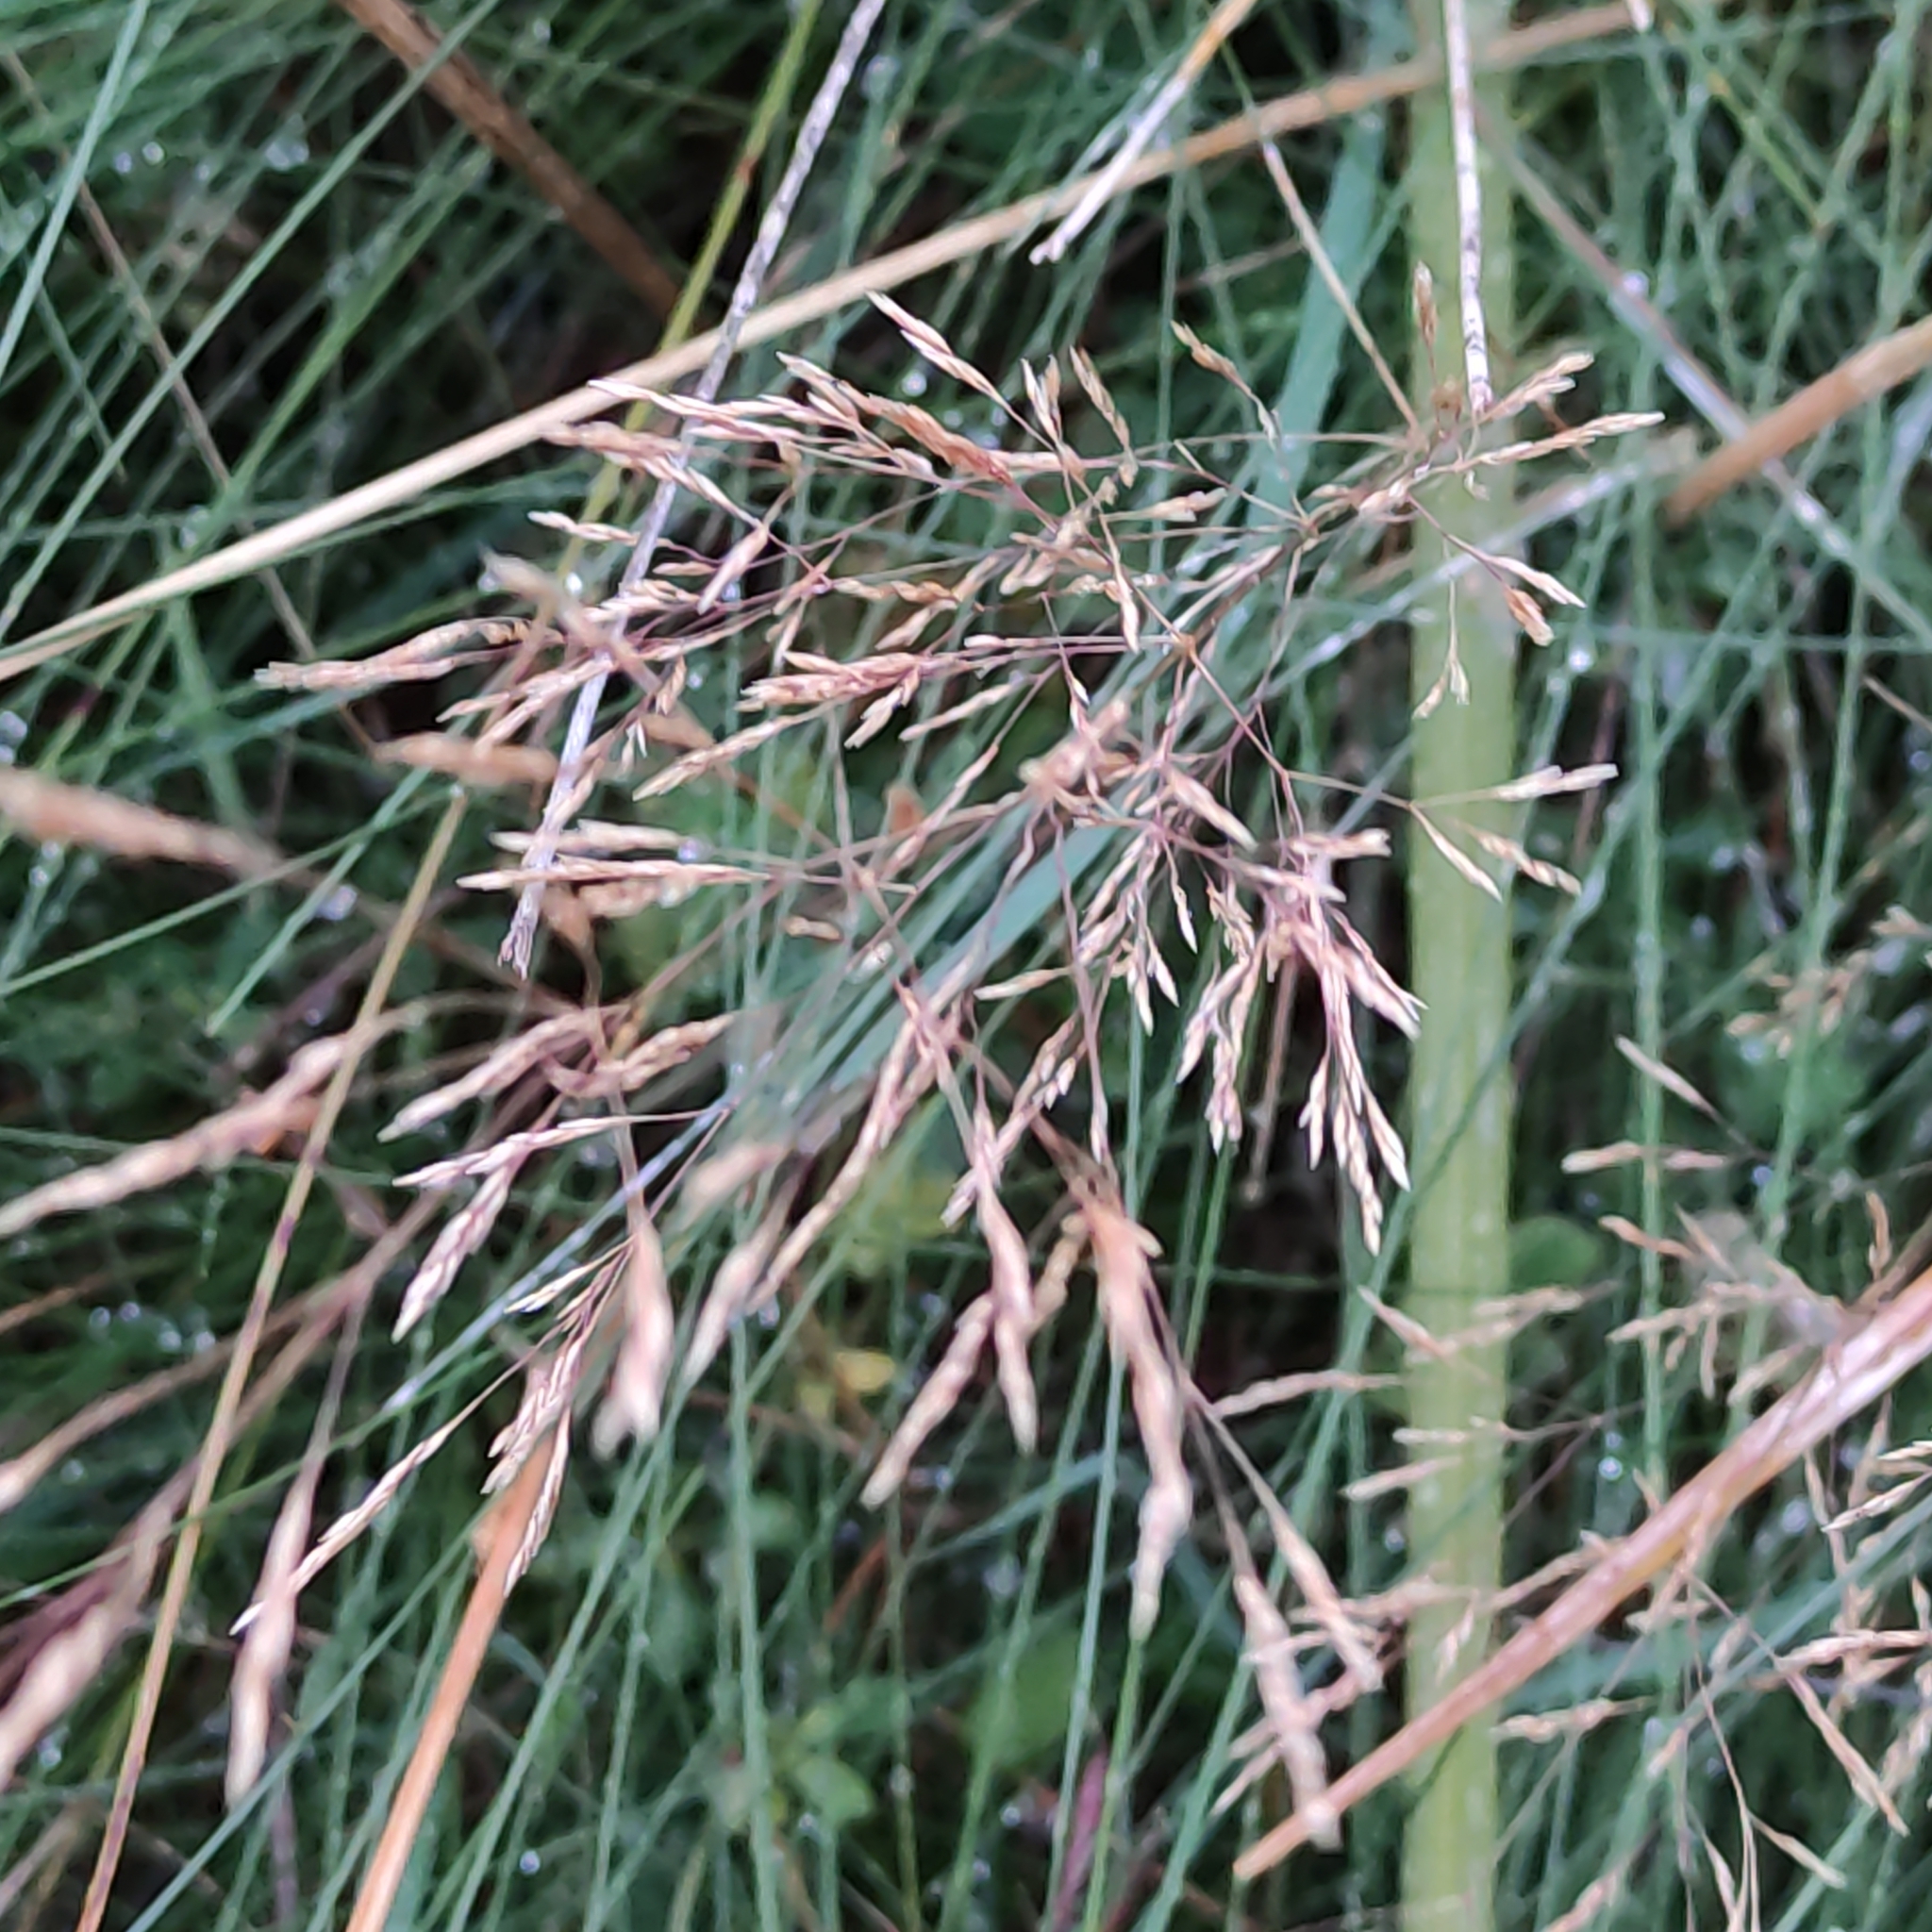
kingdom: Plantae
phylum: Tracheophyta
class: Liliopsida
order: Poales
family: Poaceae
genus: Agrostis
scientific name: Agrostis capillaris
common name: Colonial bentgrass
